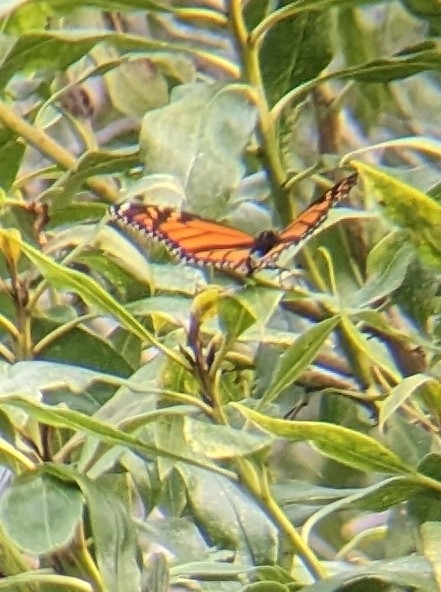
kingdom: Animalia
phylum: Arthropoda
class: Insecta
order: Lepidoptera
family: Nymphalidae
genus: Danaus
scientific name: Danaus plexippus
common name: Monarch
